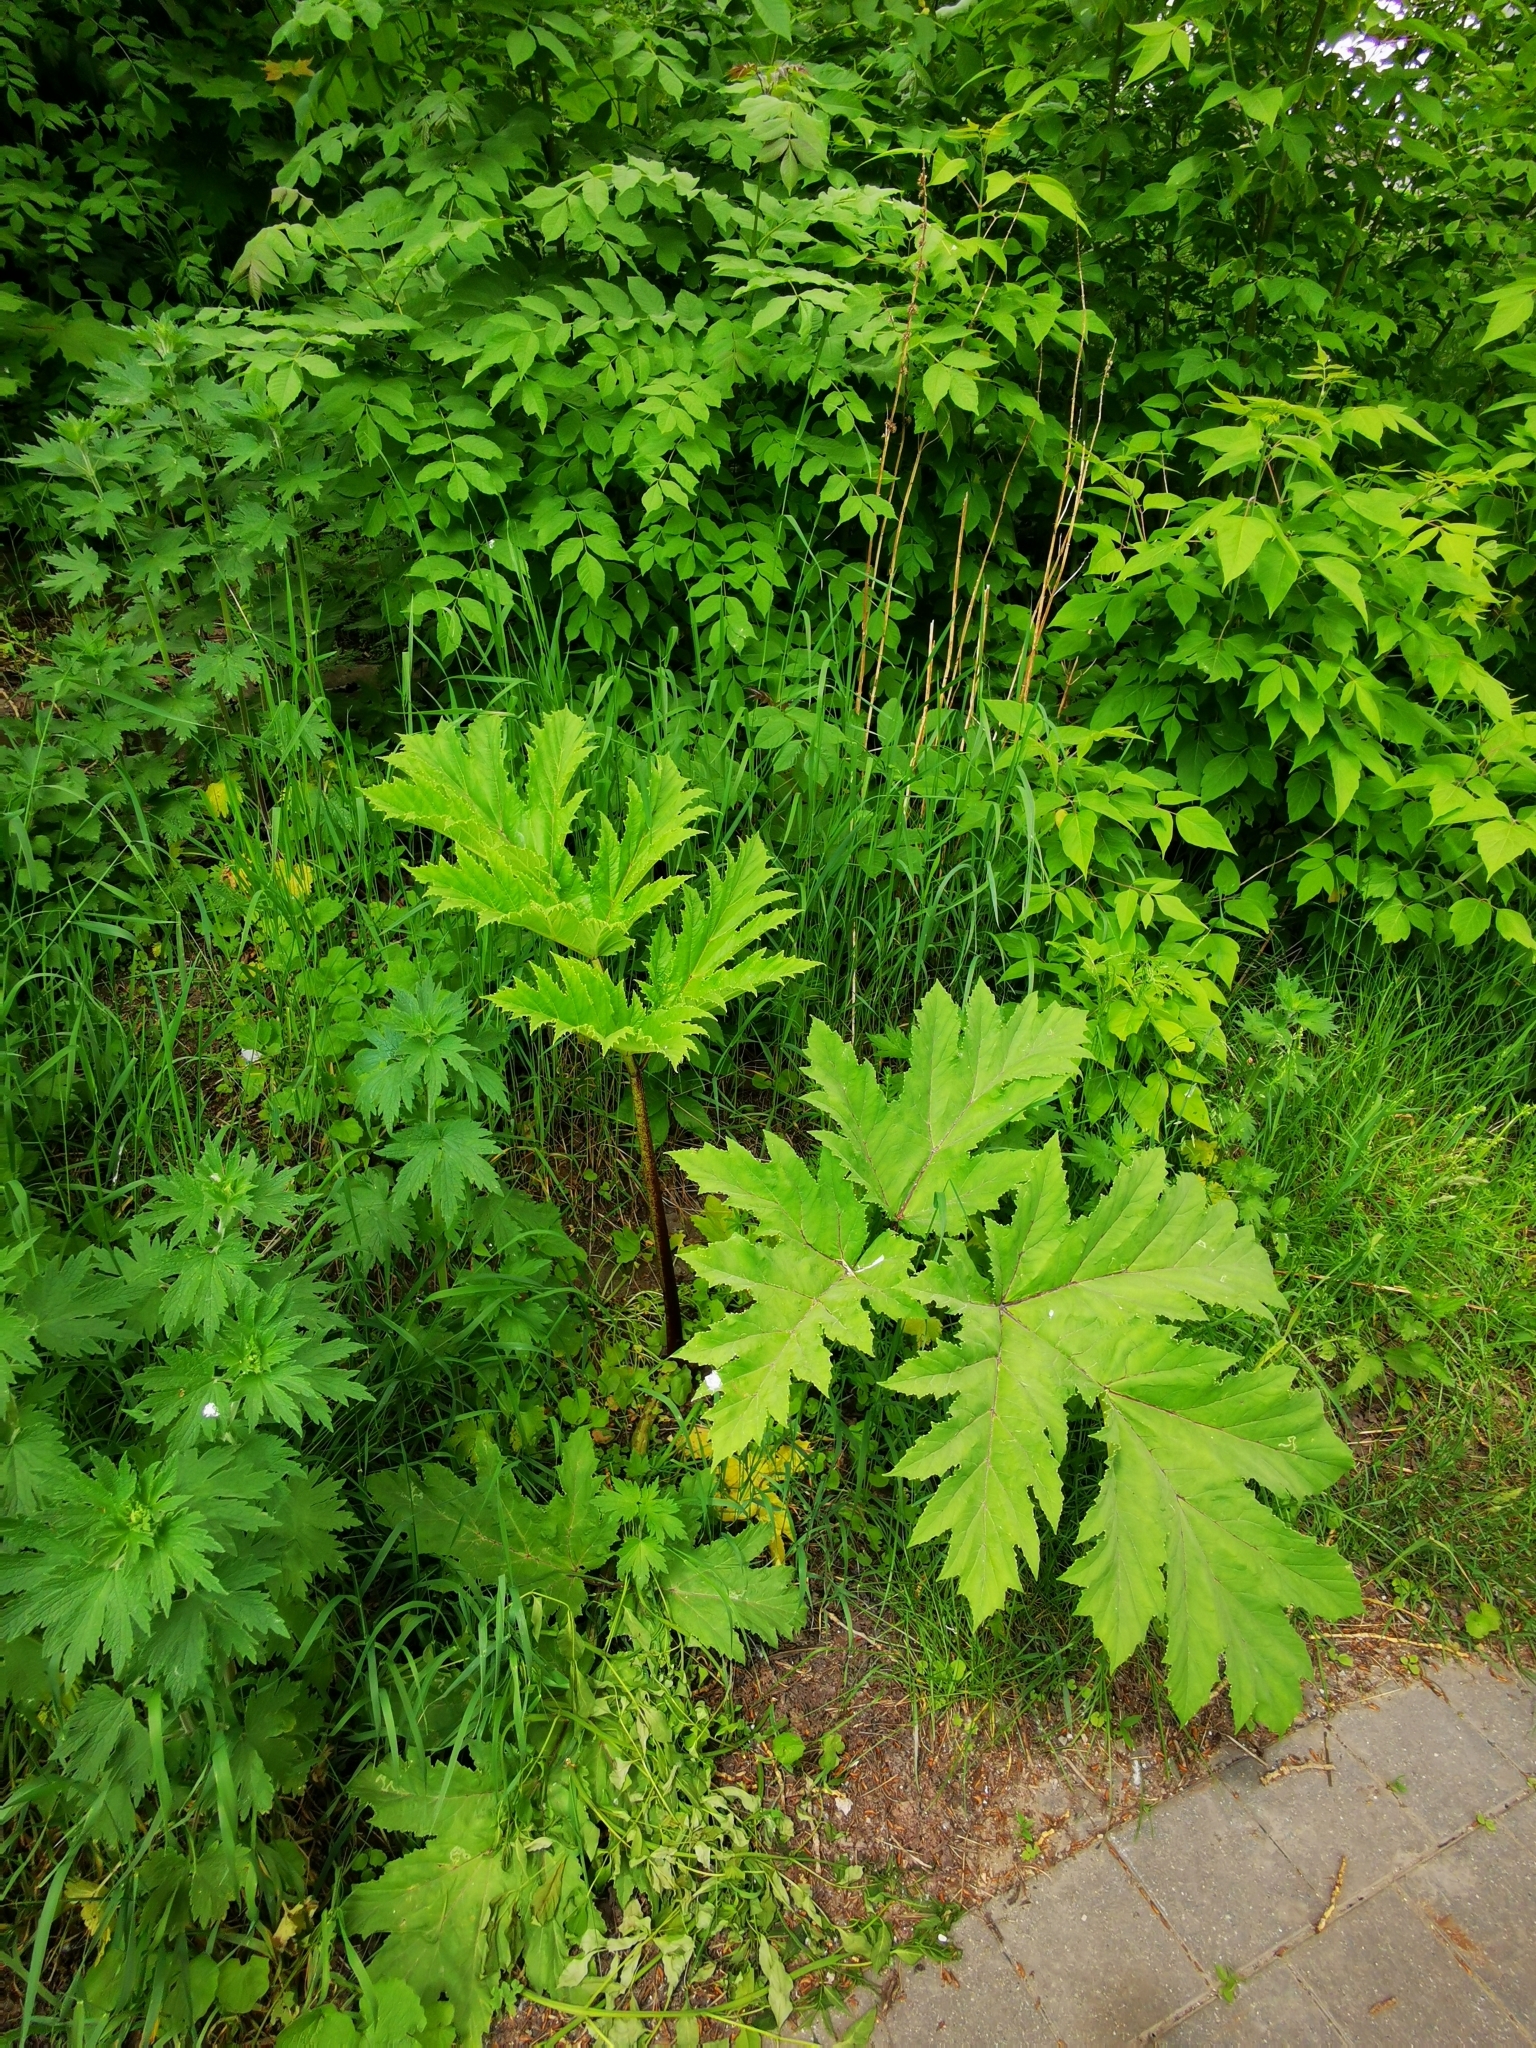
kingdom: Plantae
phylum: Tracheophyta
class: Magnoliopsida
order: Apiales
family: Apiaceae
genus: Heracleum
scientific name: Heracleum sosnowskyi
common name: Sosnowsky's hogweed
